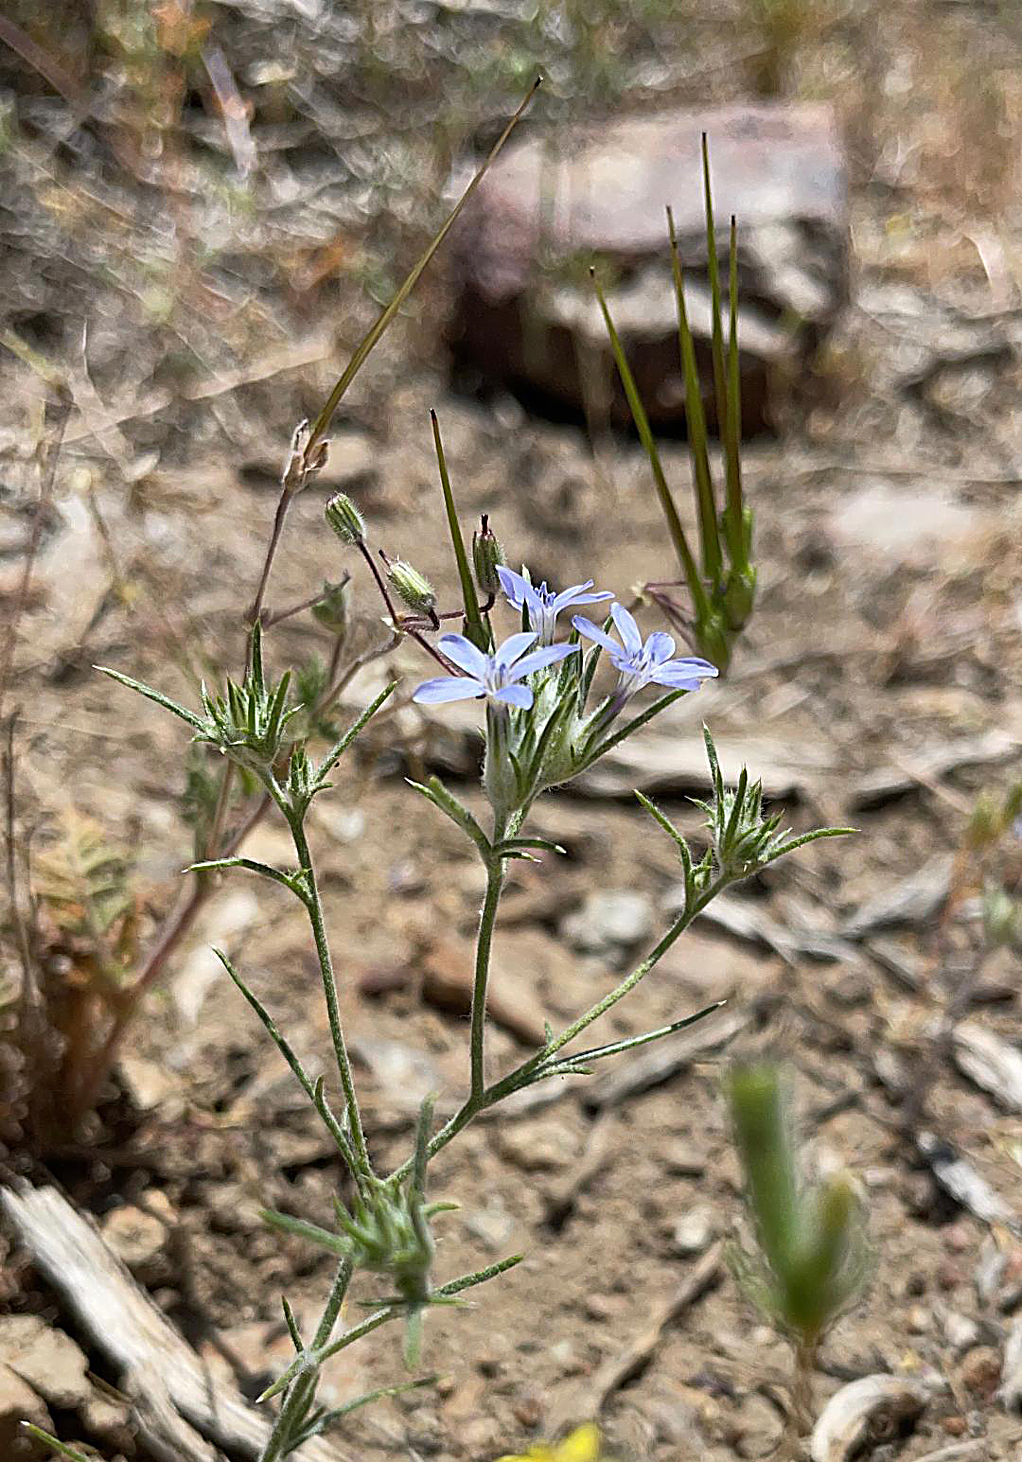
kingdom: Plantae
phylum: Tracheophyta
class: Magnoliopsida
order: Ericales
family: Polemoniaceae
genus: Eriastrum
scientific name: Eriastrum wilcoxii
